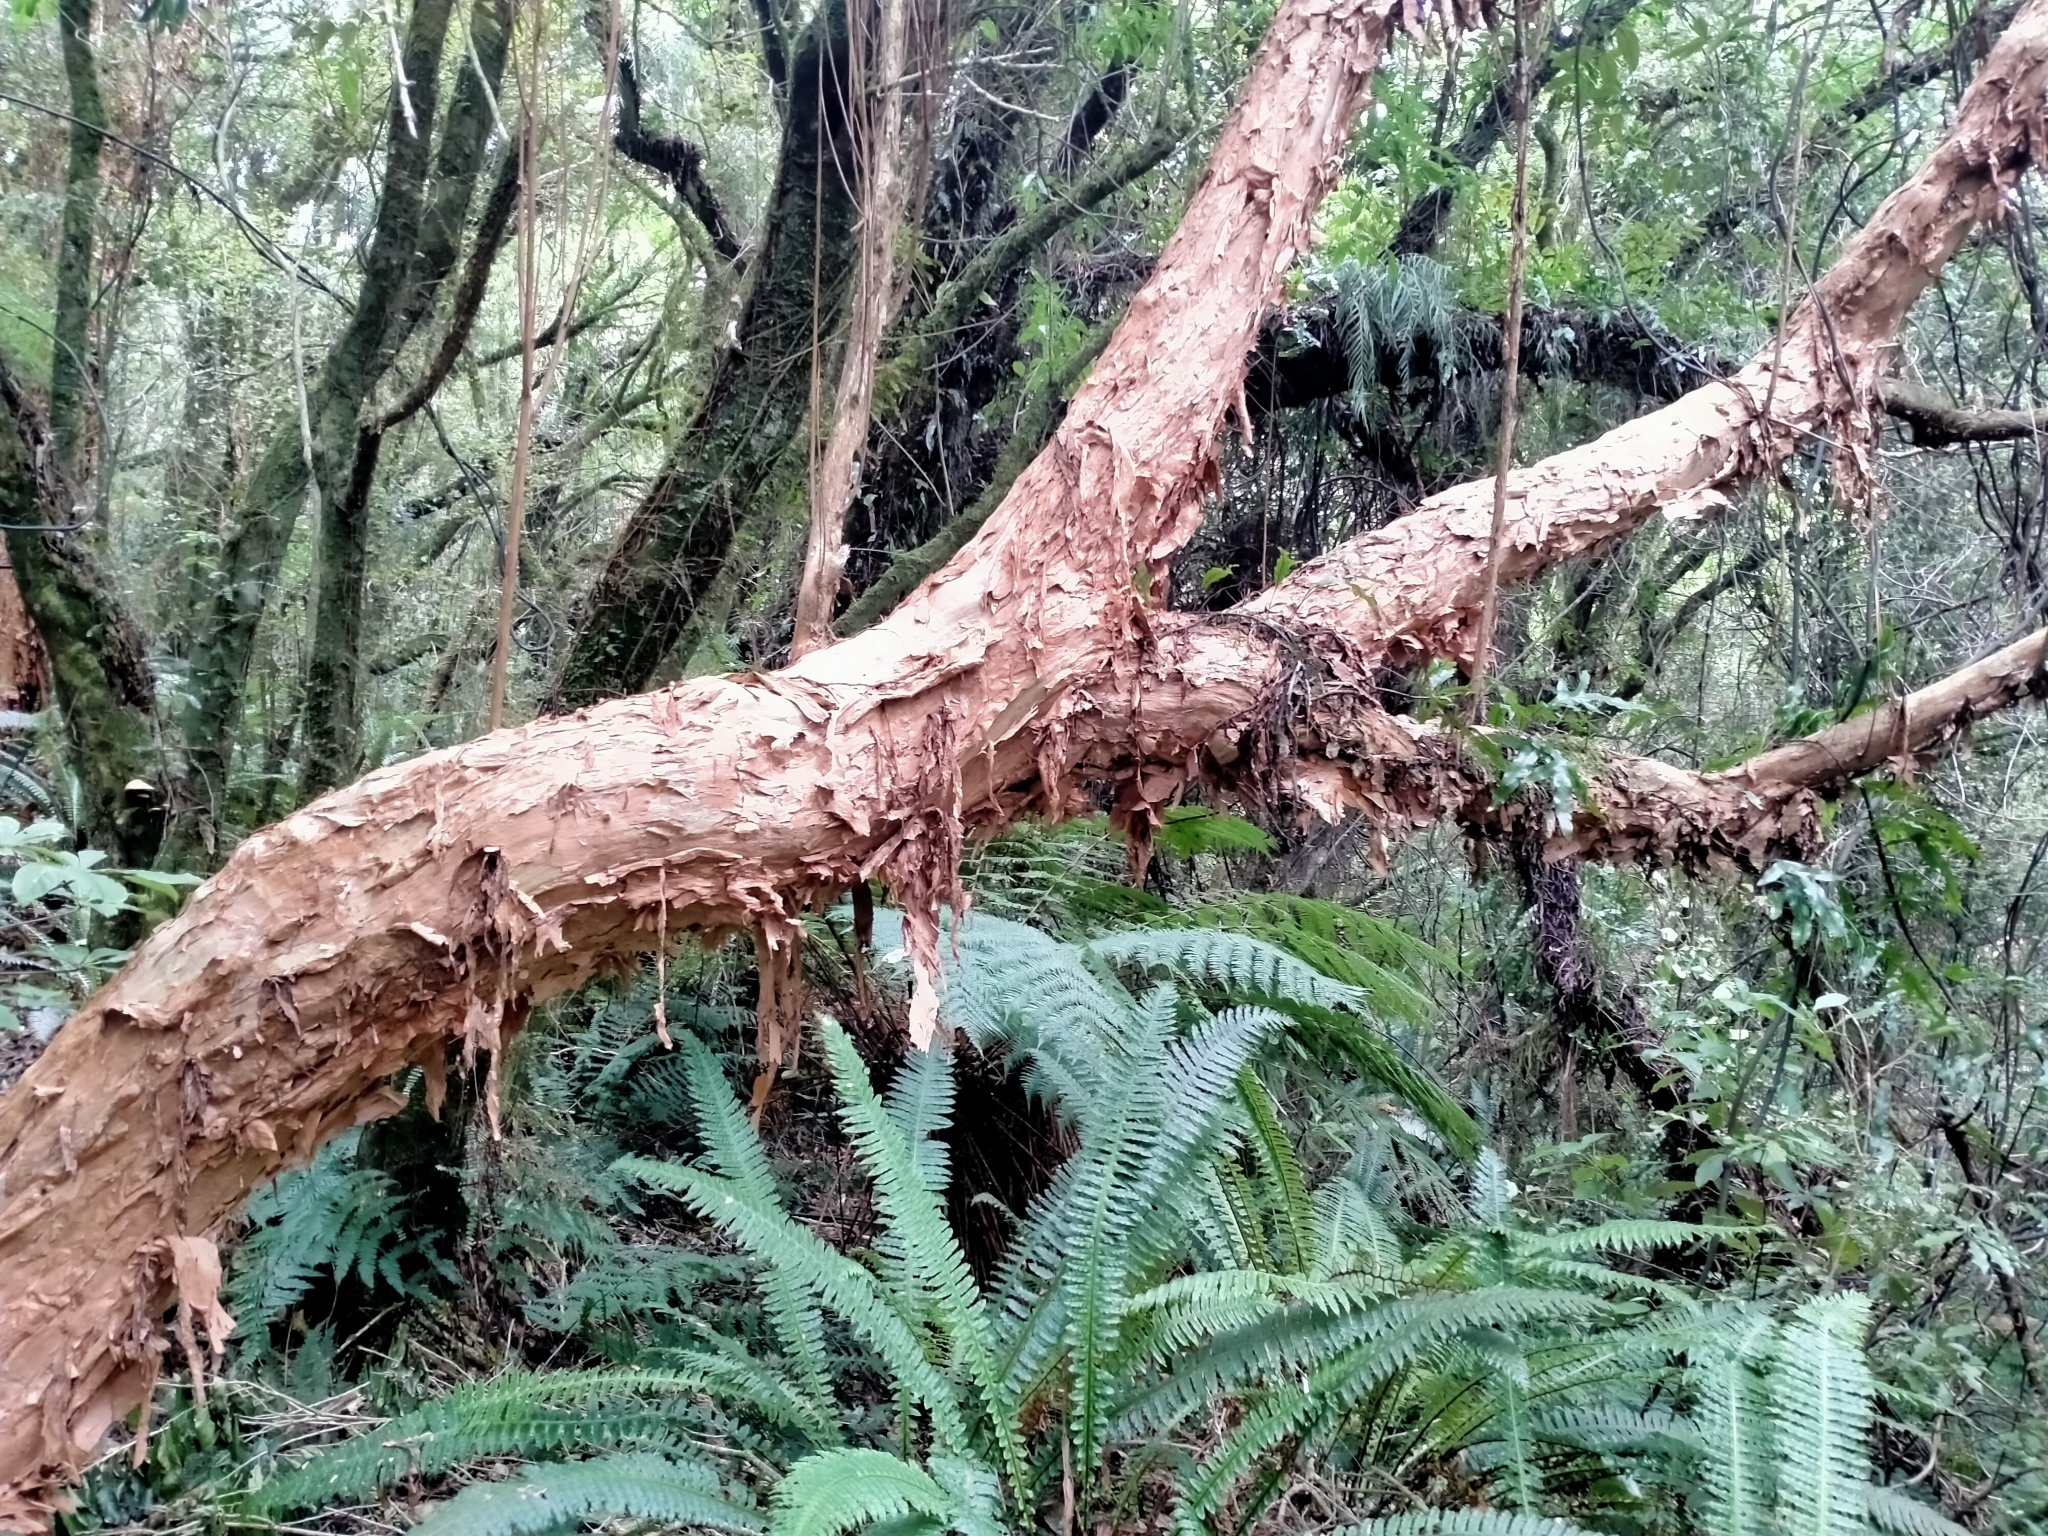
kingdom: Plantae
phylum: Tracheophyta
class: Magnoliopsida
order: Myrtales
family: Onagraceae
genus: Fuchsia
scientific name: Fuchsia excorticata
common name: Tree fuchsia
